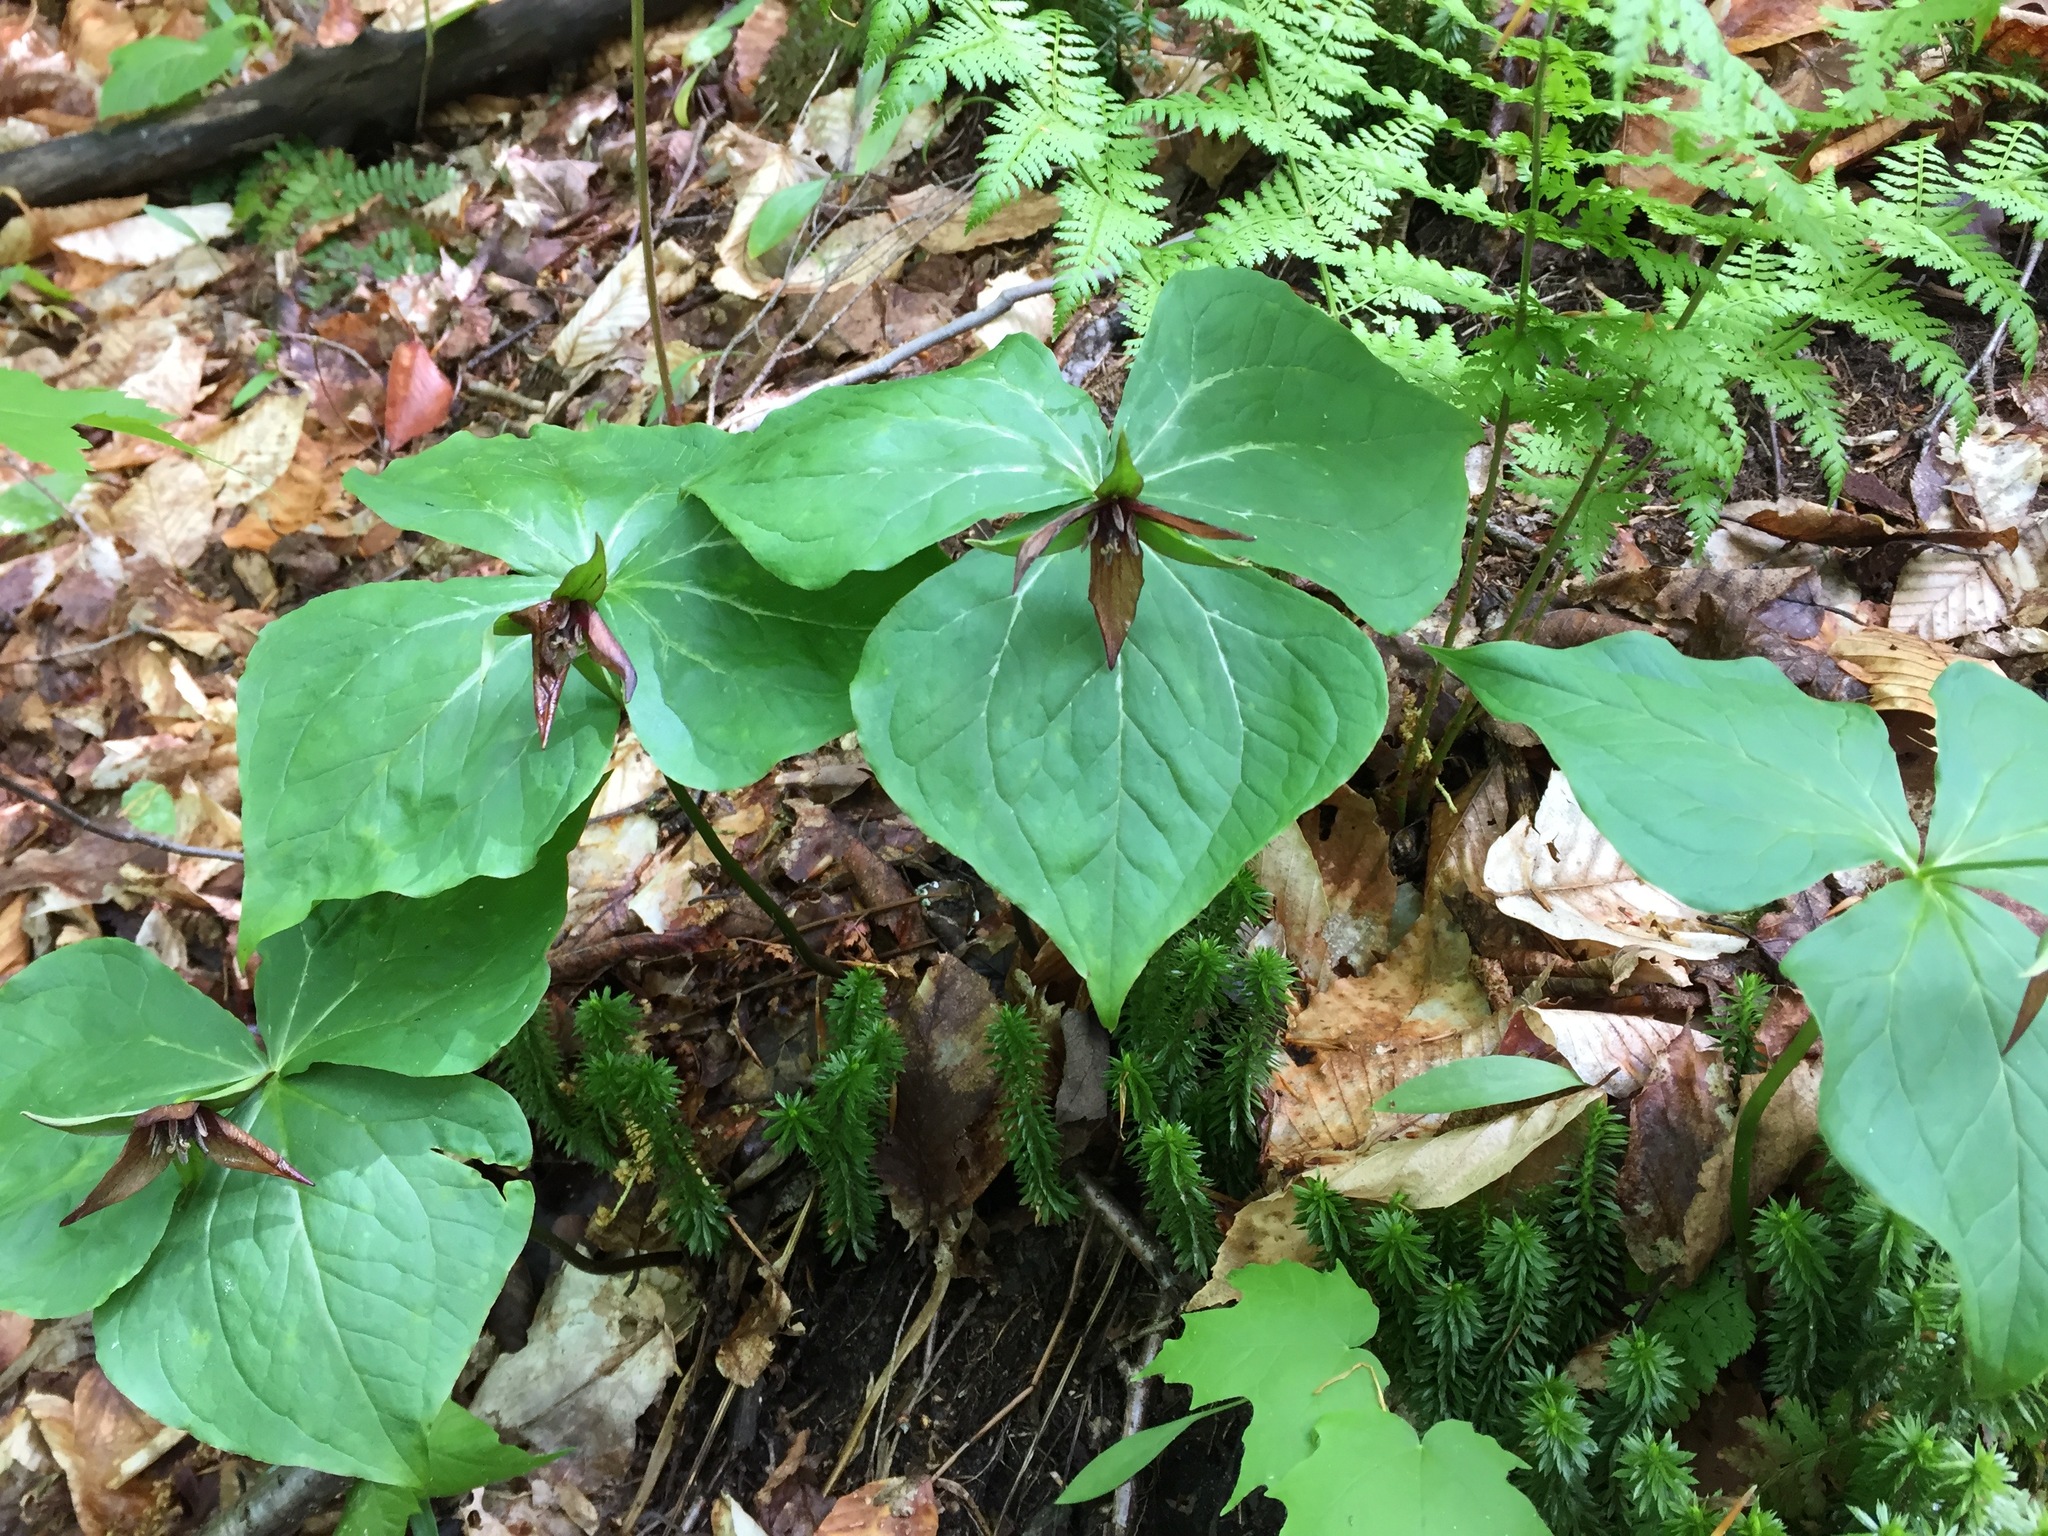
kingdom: Plantae
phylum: Tracheophyta
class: Liliopsida
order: Liliales
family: Melanthiaceae
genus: Trillium
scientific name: Trillium erectum
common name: Purple trillium
